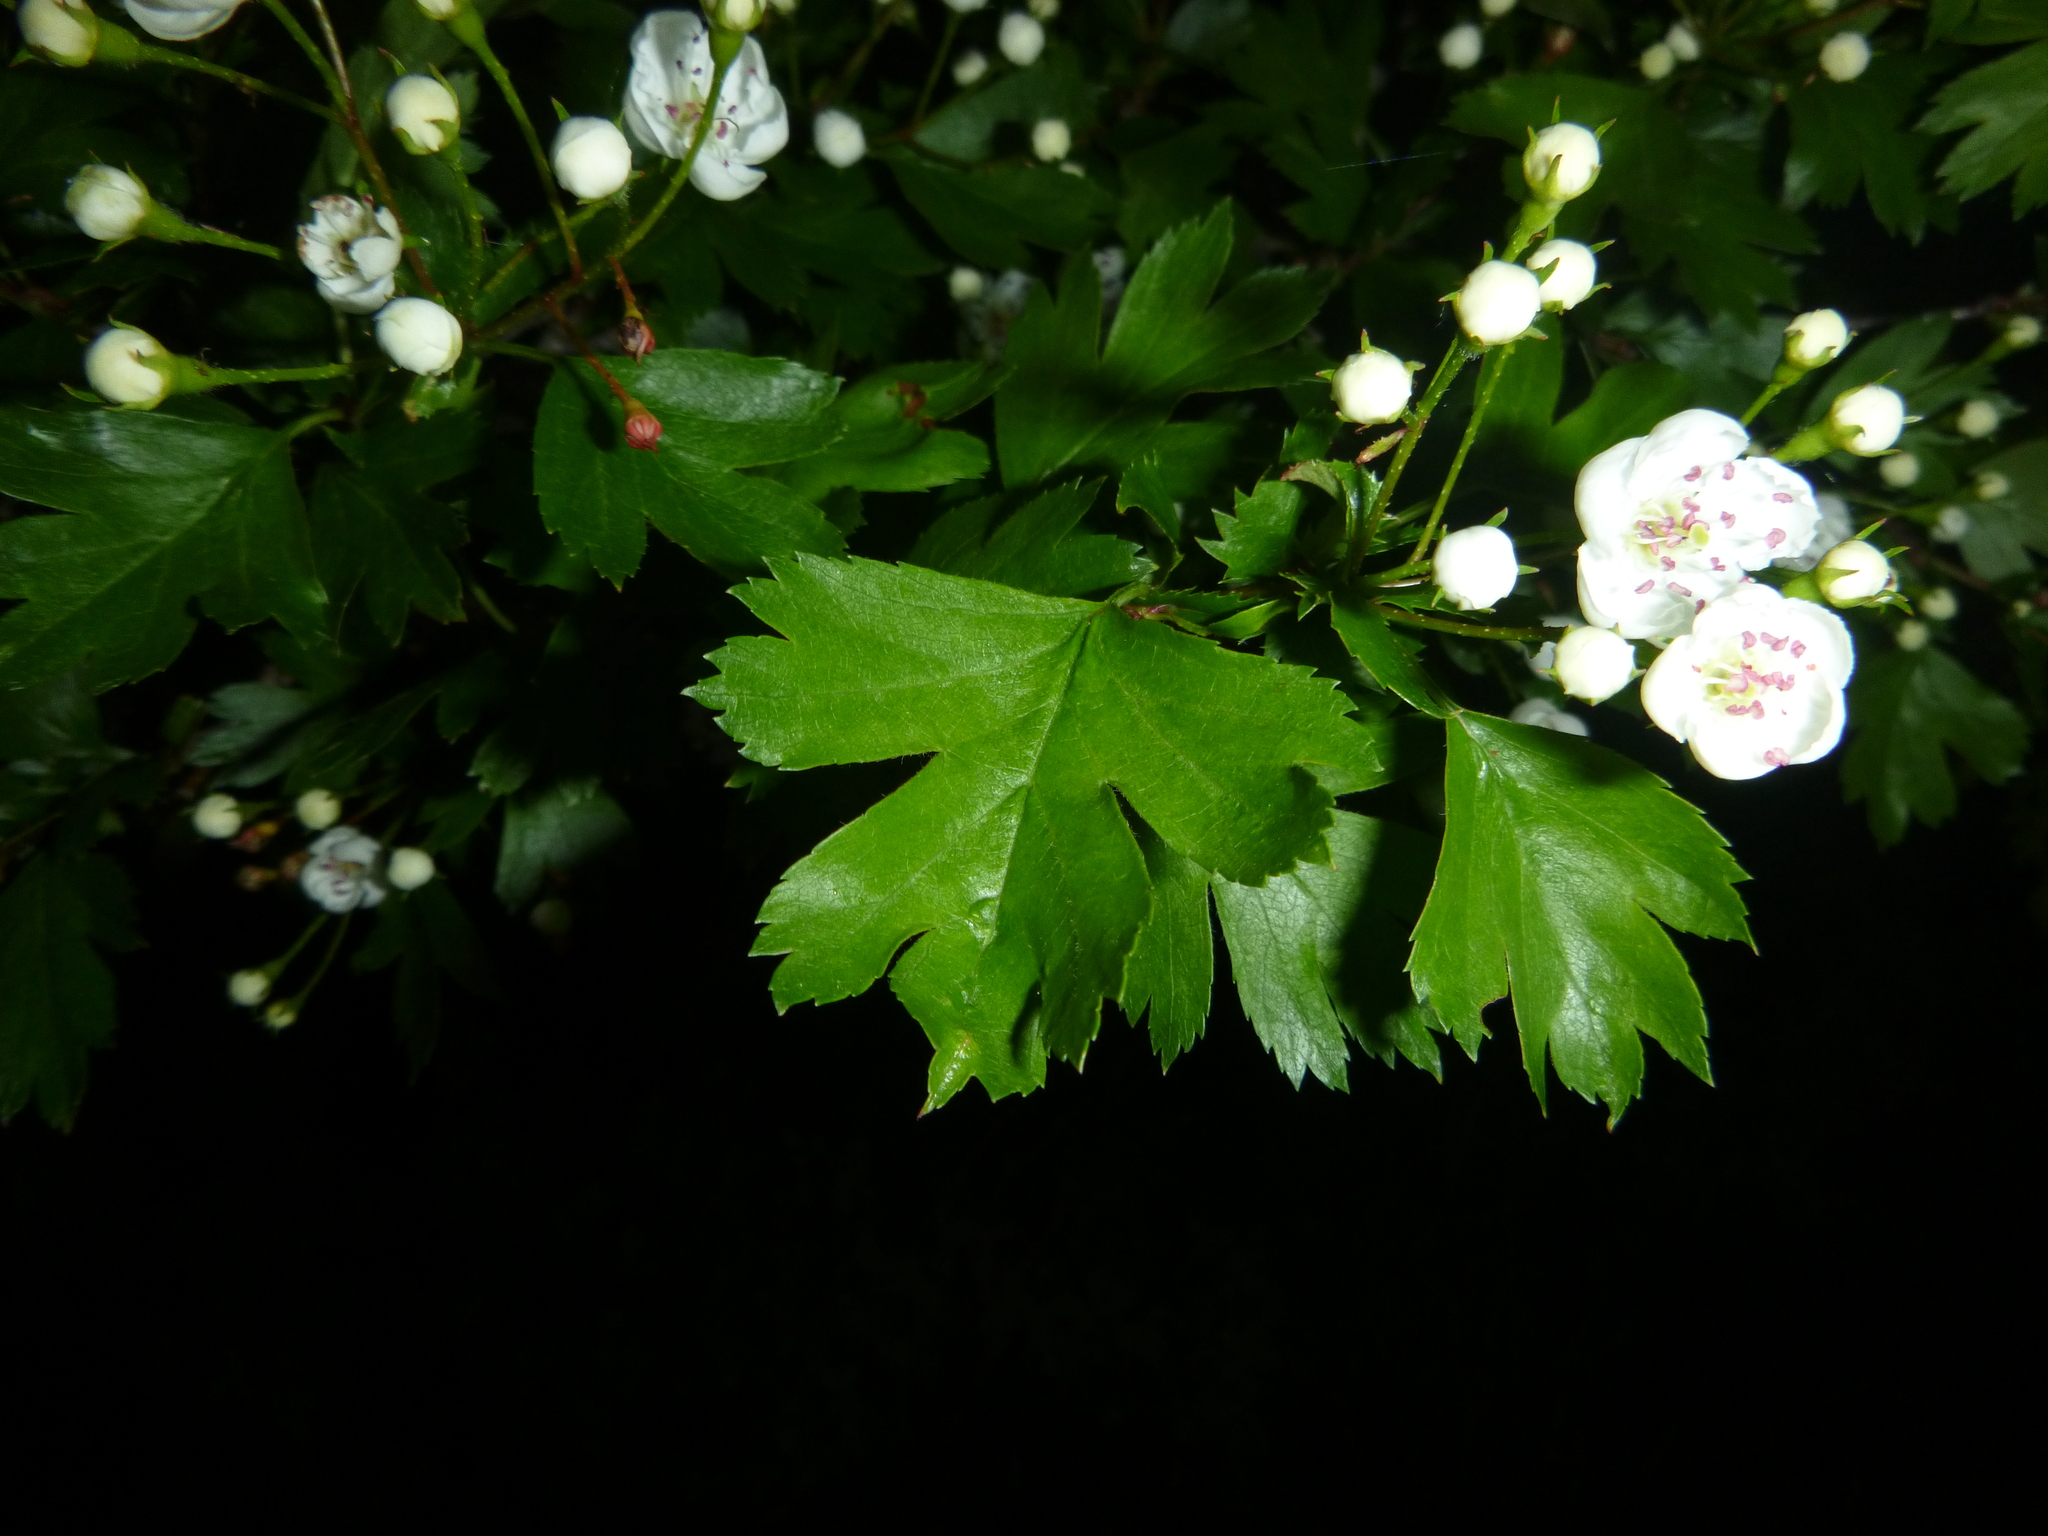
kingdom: Plantae
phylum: Tracheophyta
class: Magnoliopsida
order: Rosales
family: Rosaceae
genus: Crataegus
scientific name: Crataegus monogyna
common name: Hawthorn
